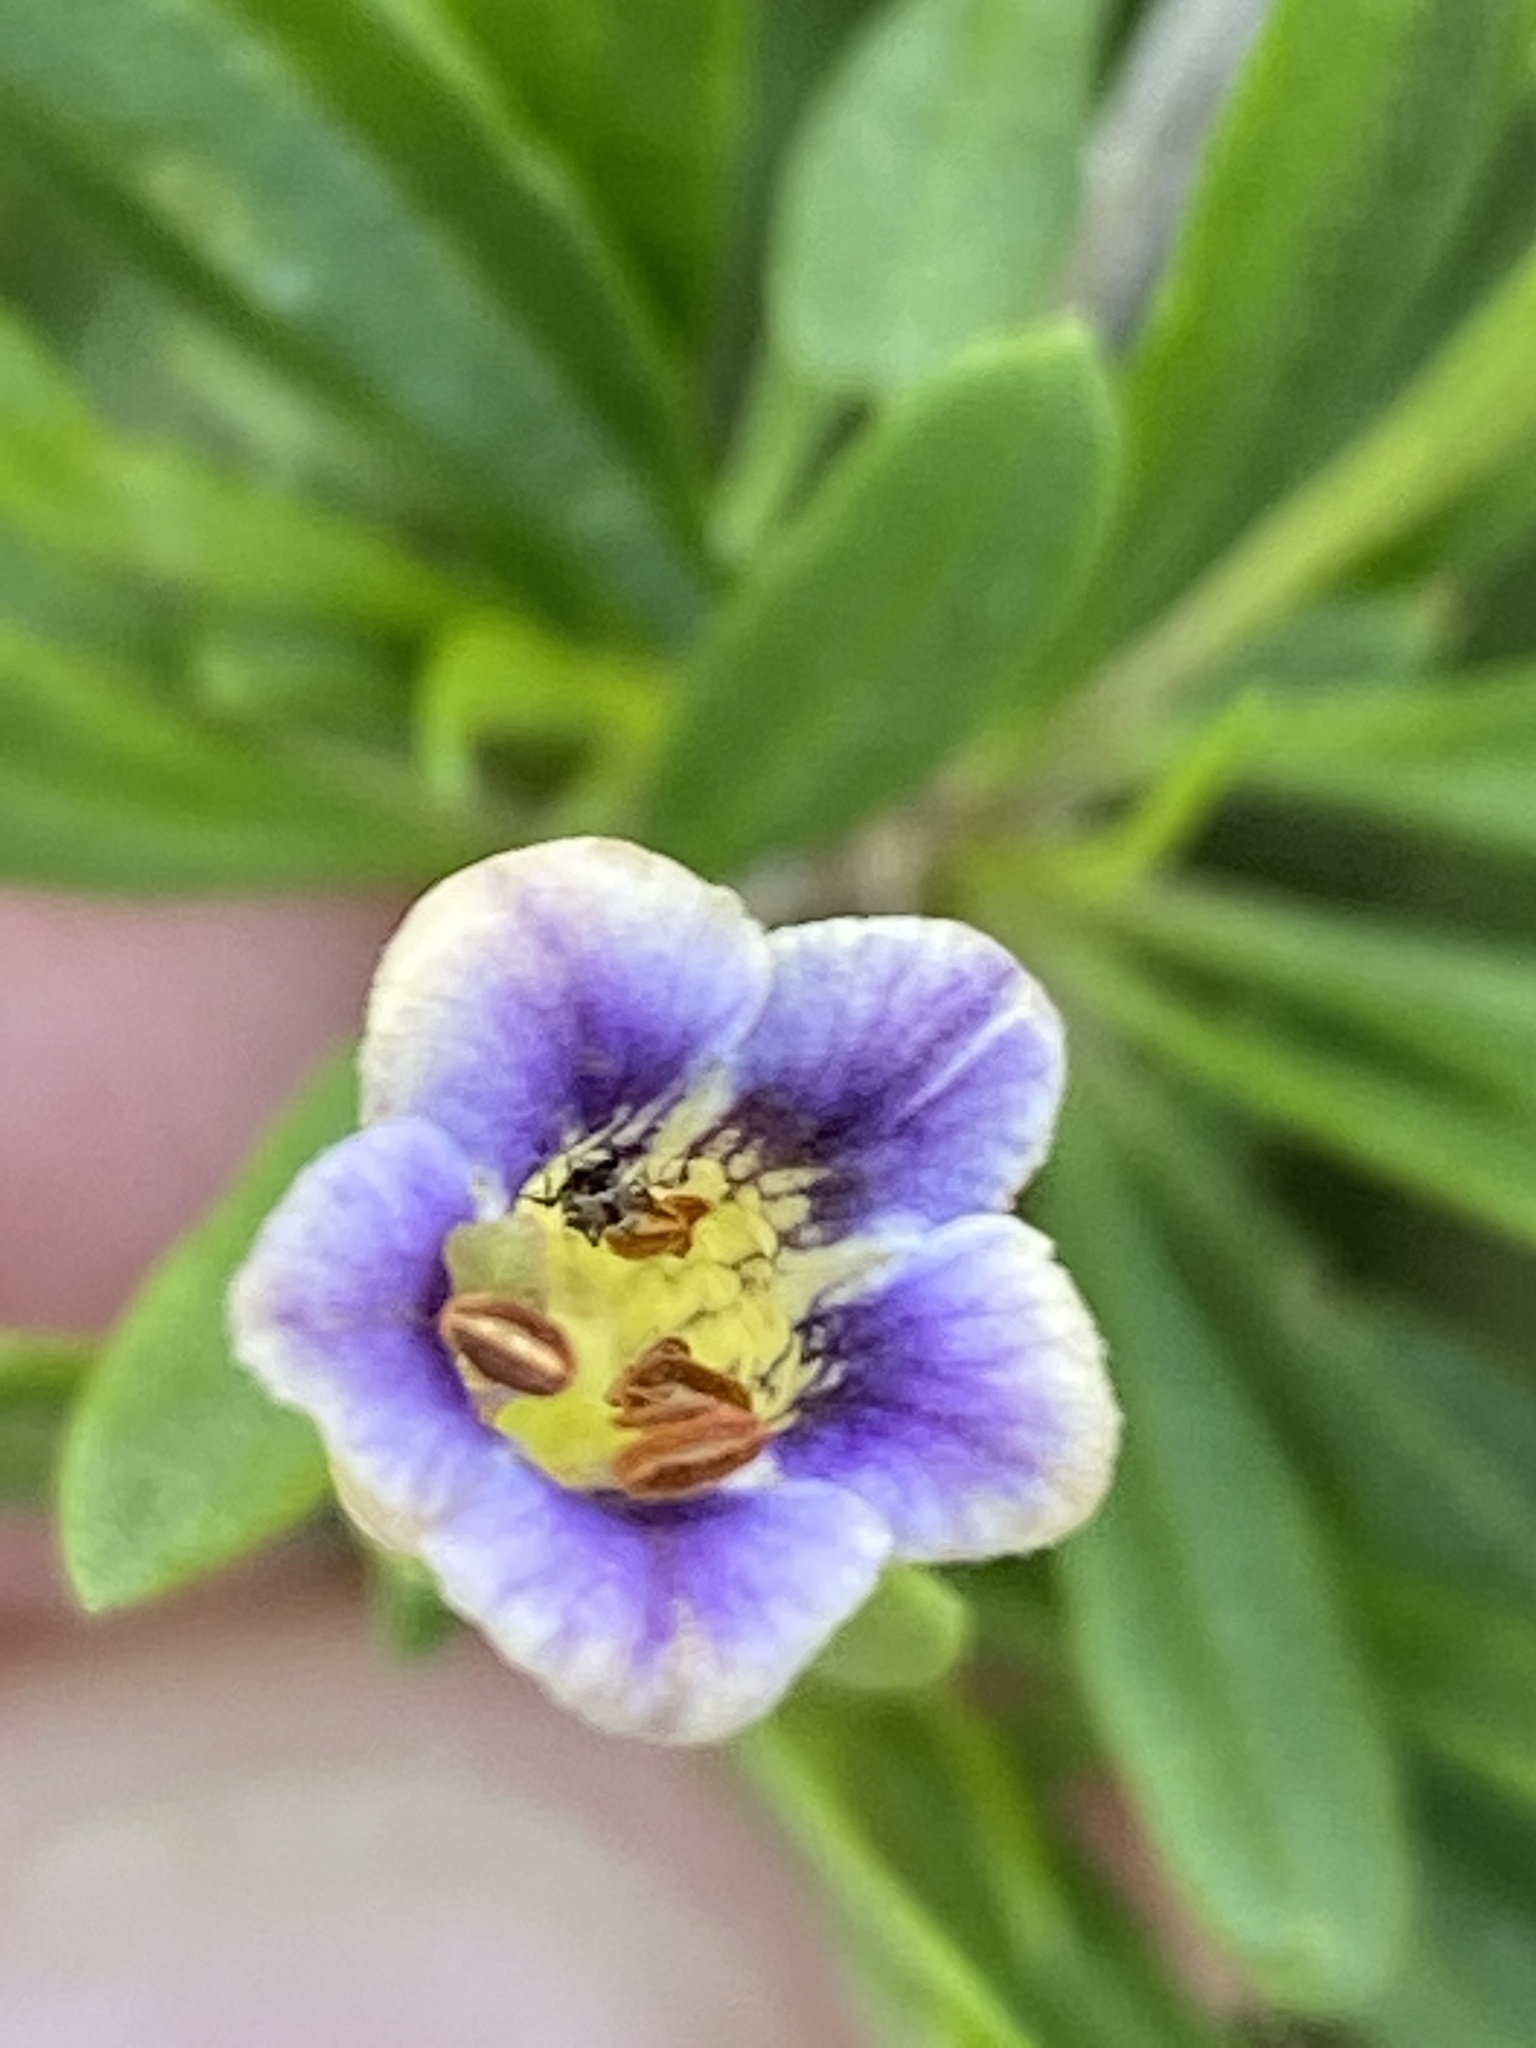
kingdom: Plantae
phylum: Tracheophyta
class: Magnoliopsida
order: Solanales
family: Solanaceae
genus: Lycium
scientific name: Lycium oxycarpum
